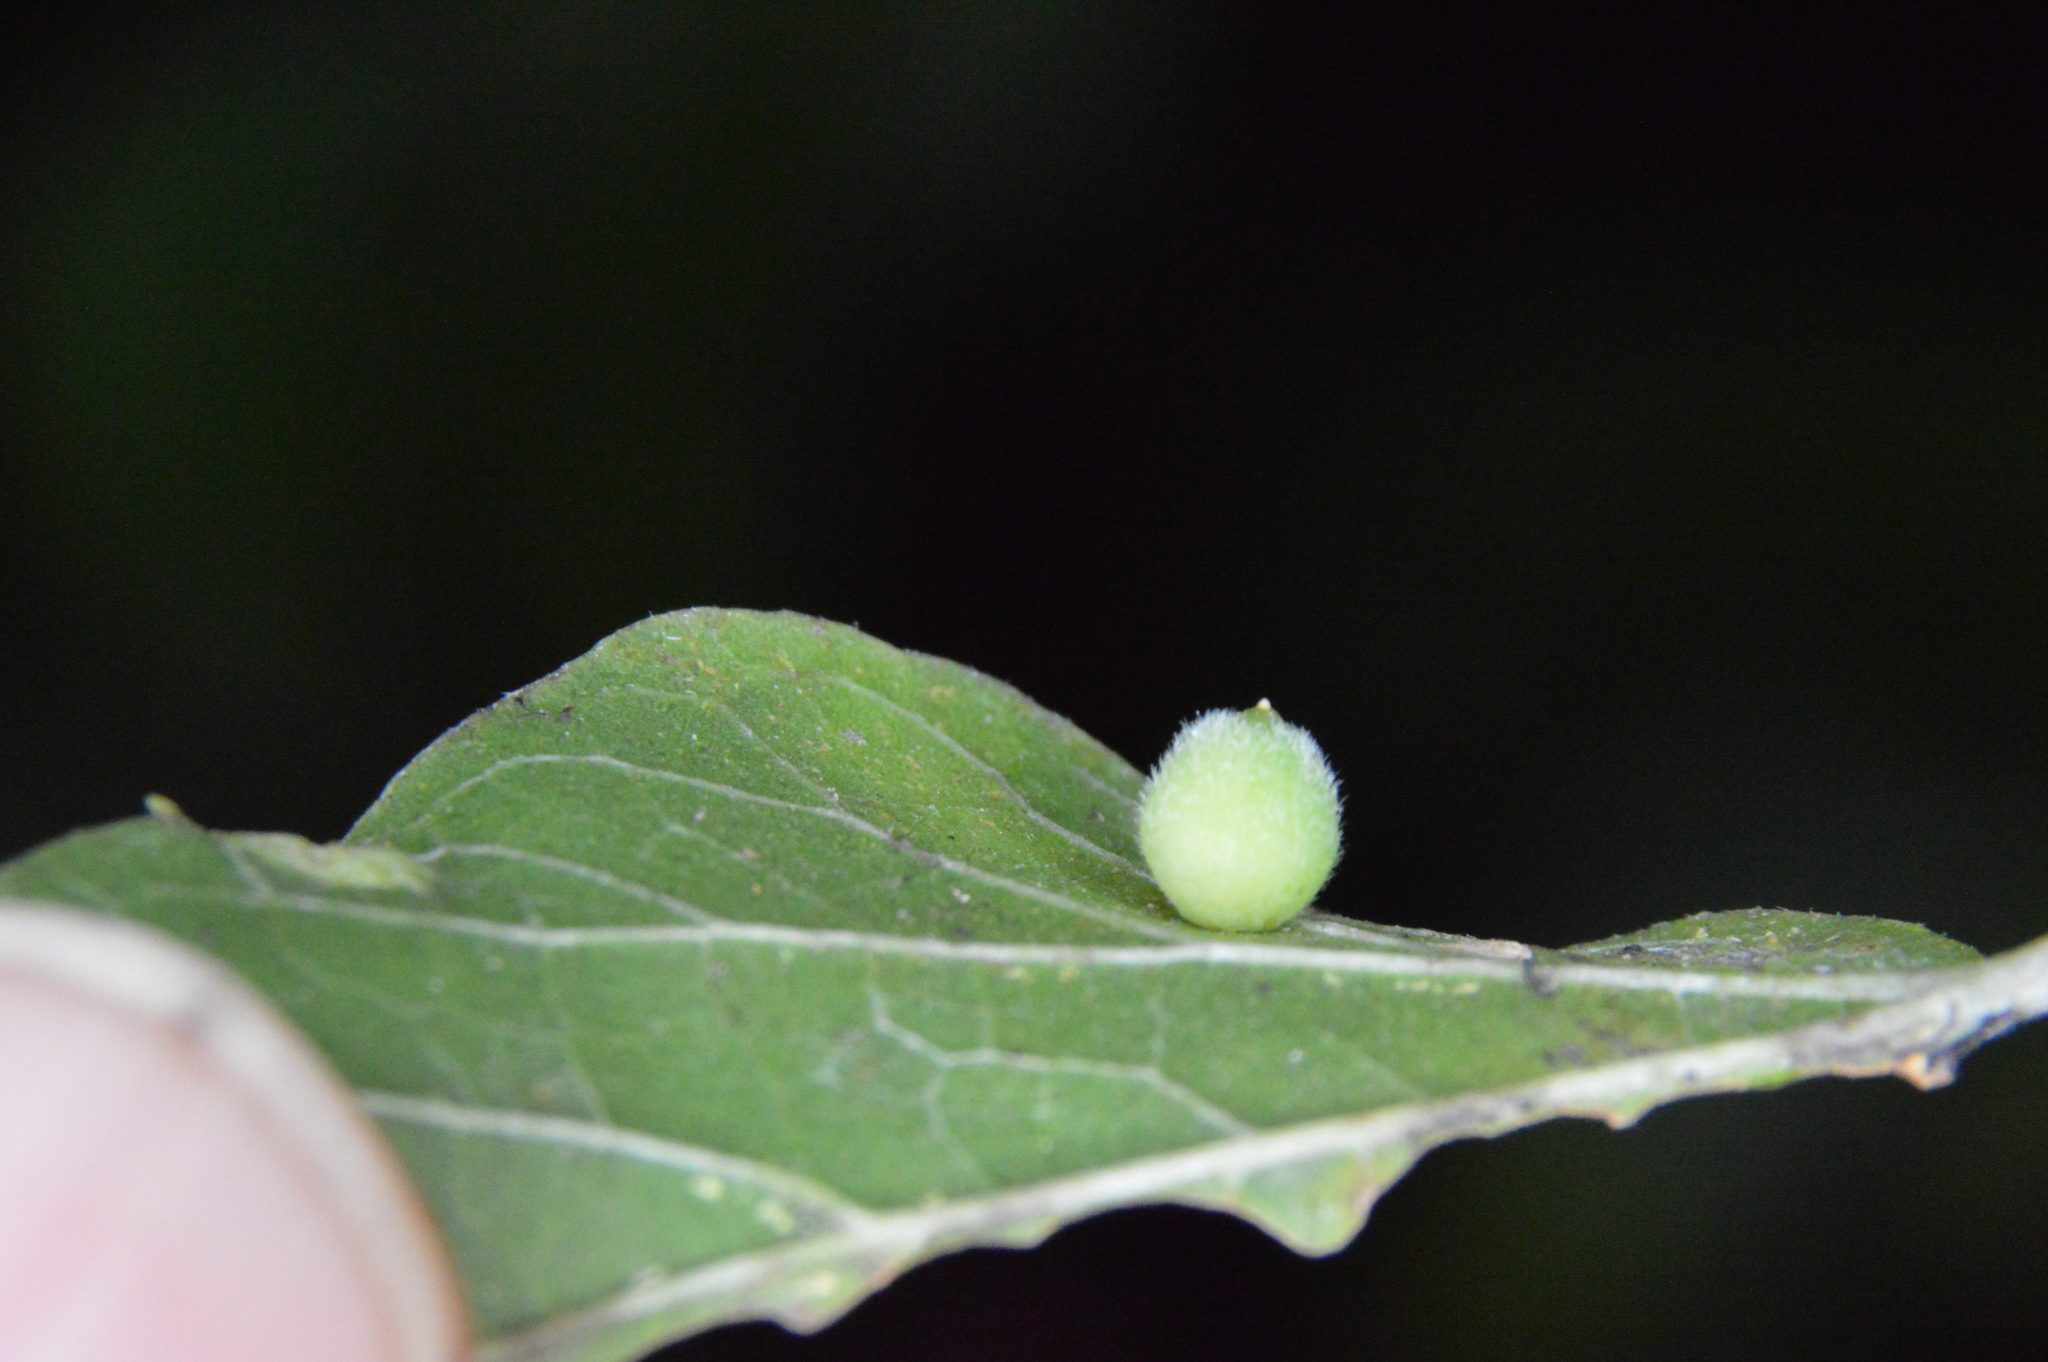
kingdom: Animalia
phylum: Arthropoda
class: Insecta
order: Diptera
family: Cecidomyiidae
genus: Celticecis
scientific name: Celticecis globosa
